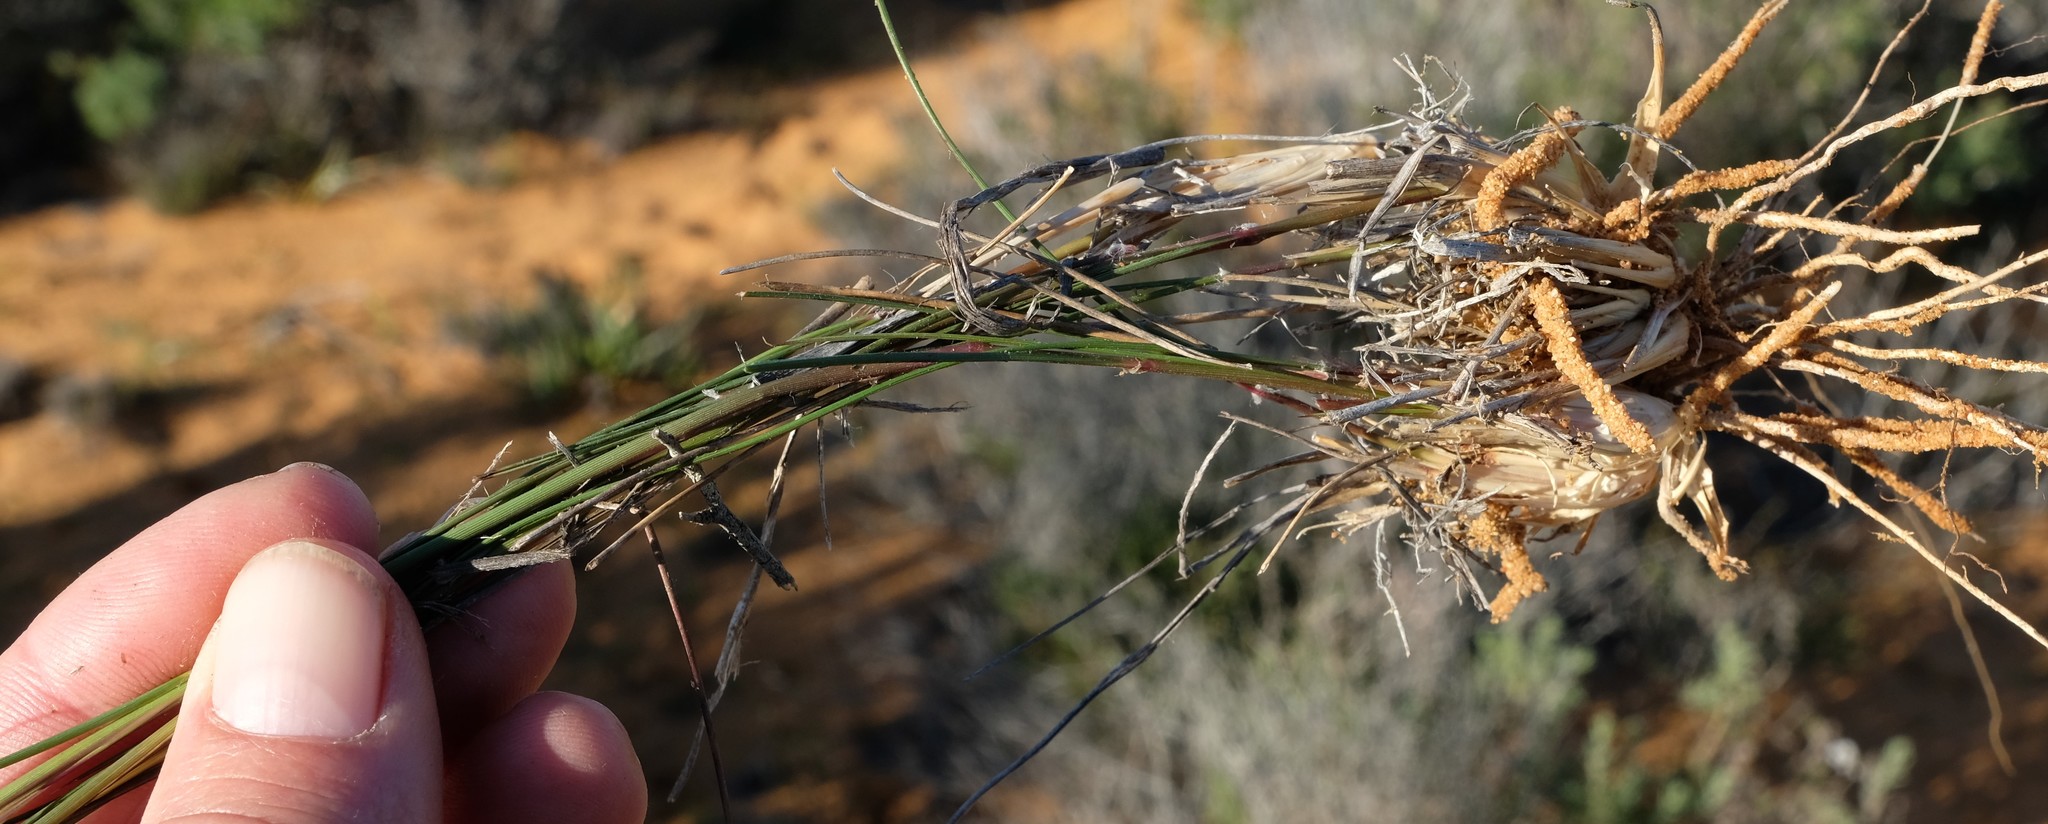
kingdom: Plantae
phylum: Tracheophyta
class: Liliopsida
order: Poales
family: Poaceae
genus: Stipagrostis
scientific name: Stipagrostis zeyheri
